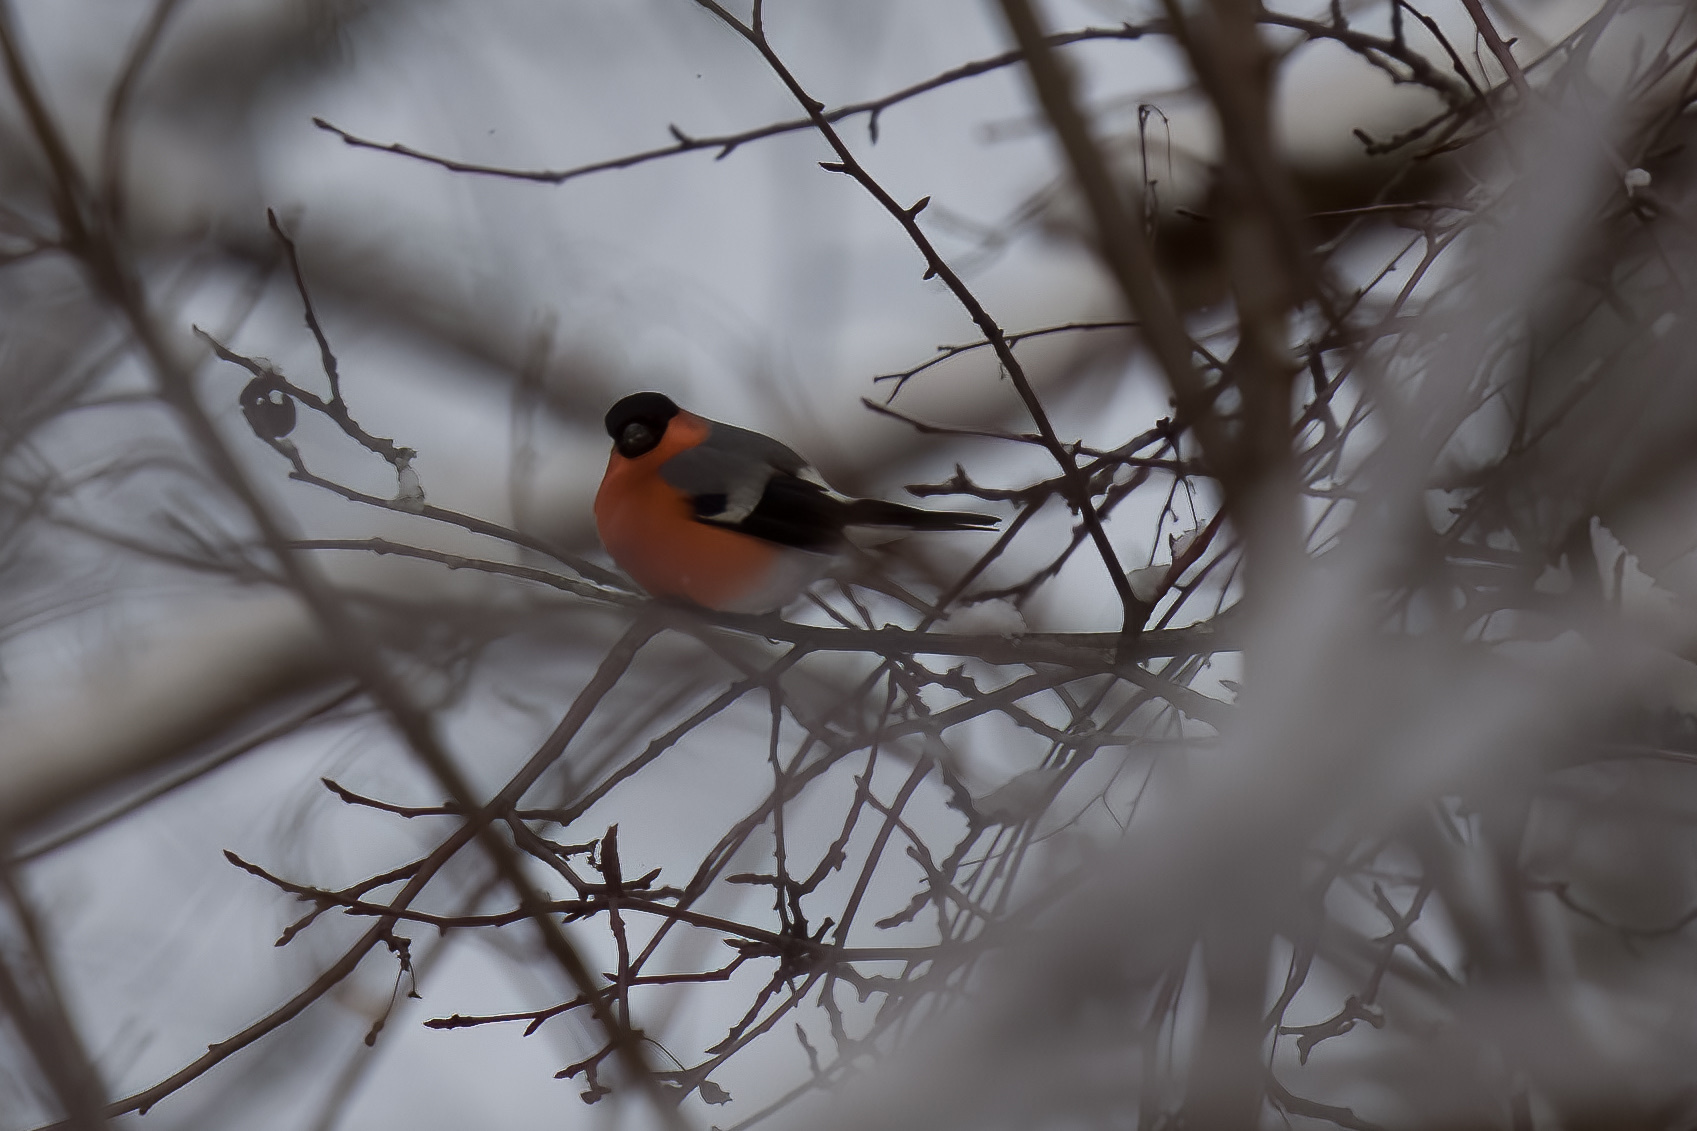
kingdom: Animalia
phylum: Chordata
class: Aves
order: Passeriformes
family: Fringillidae
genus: Pyrrhula
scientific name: Pyrrhula pyrrhula
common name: Eurasian bullfinch
